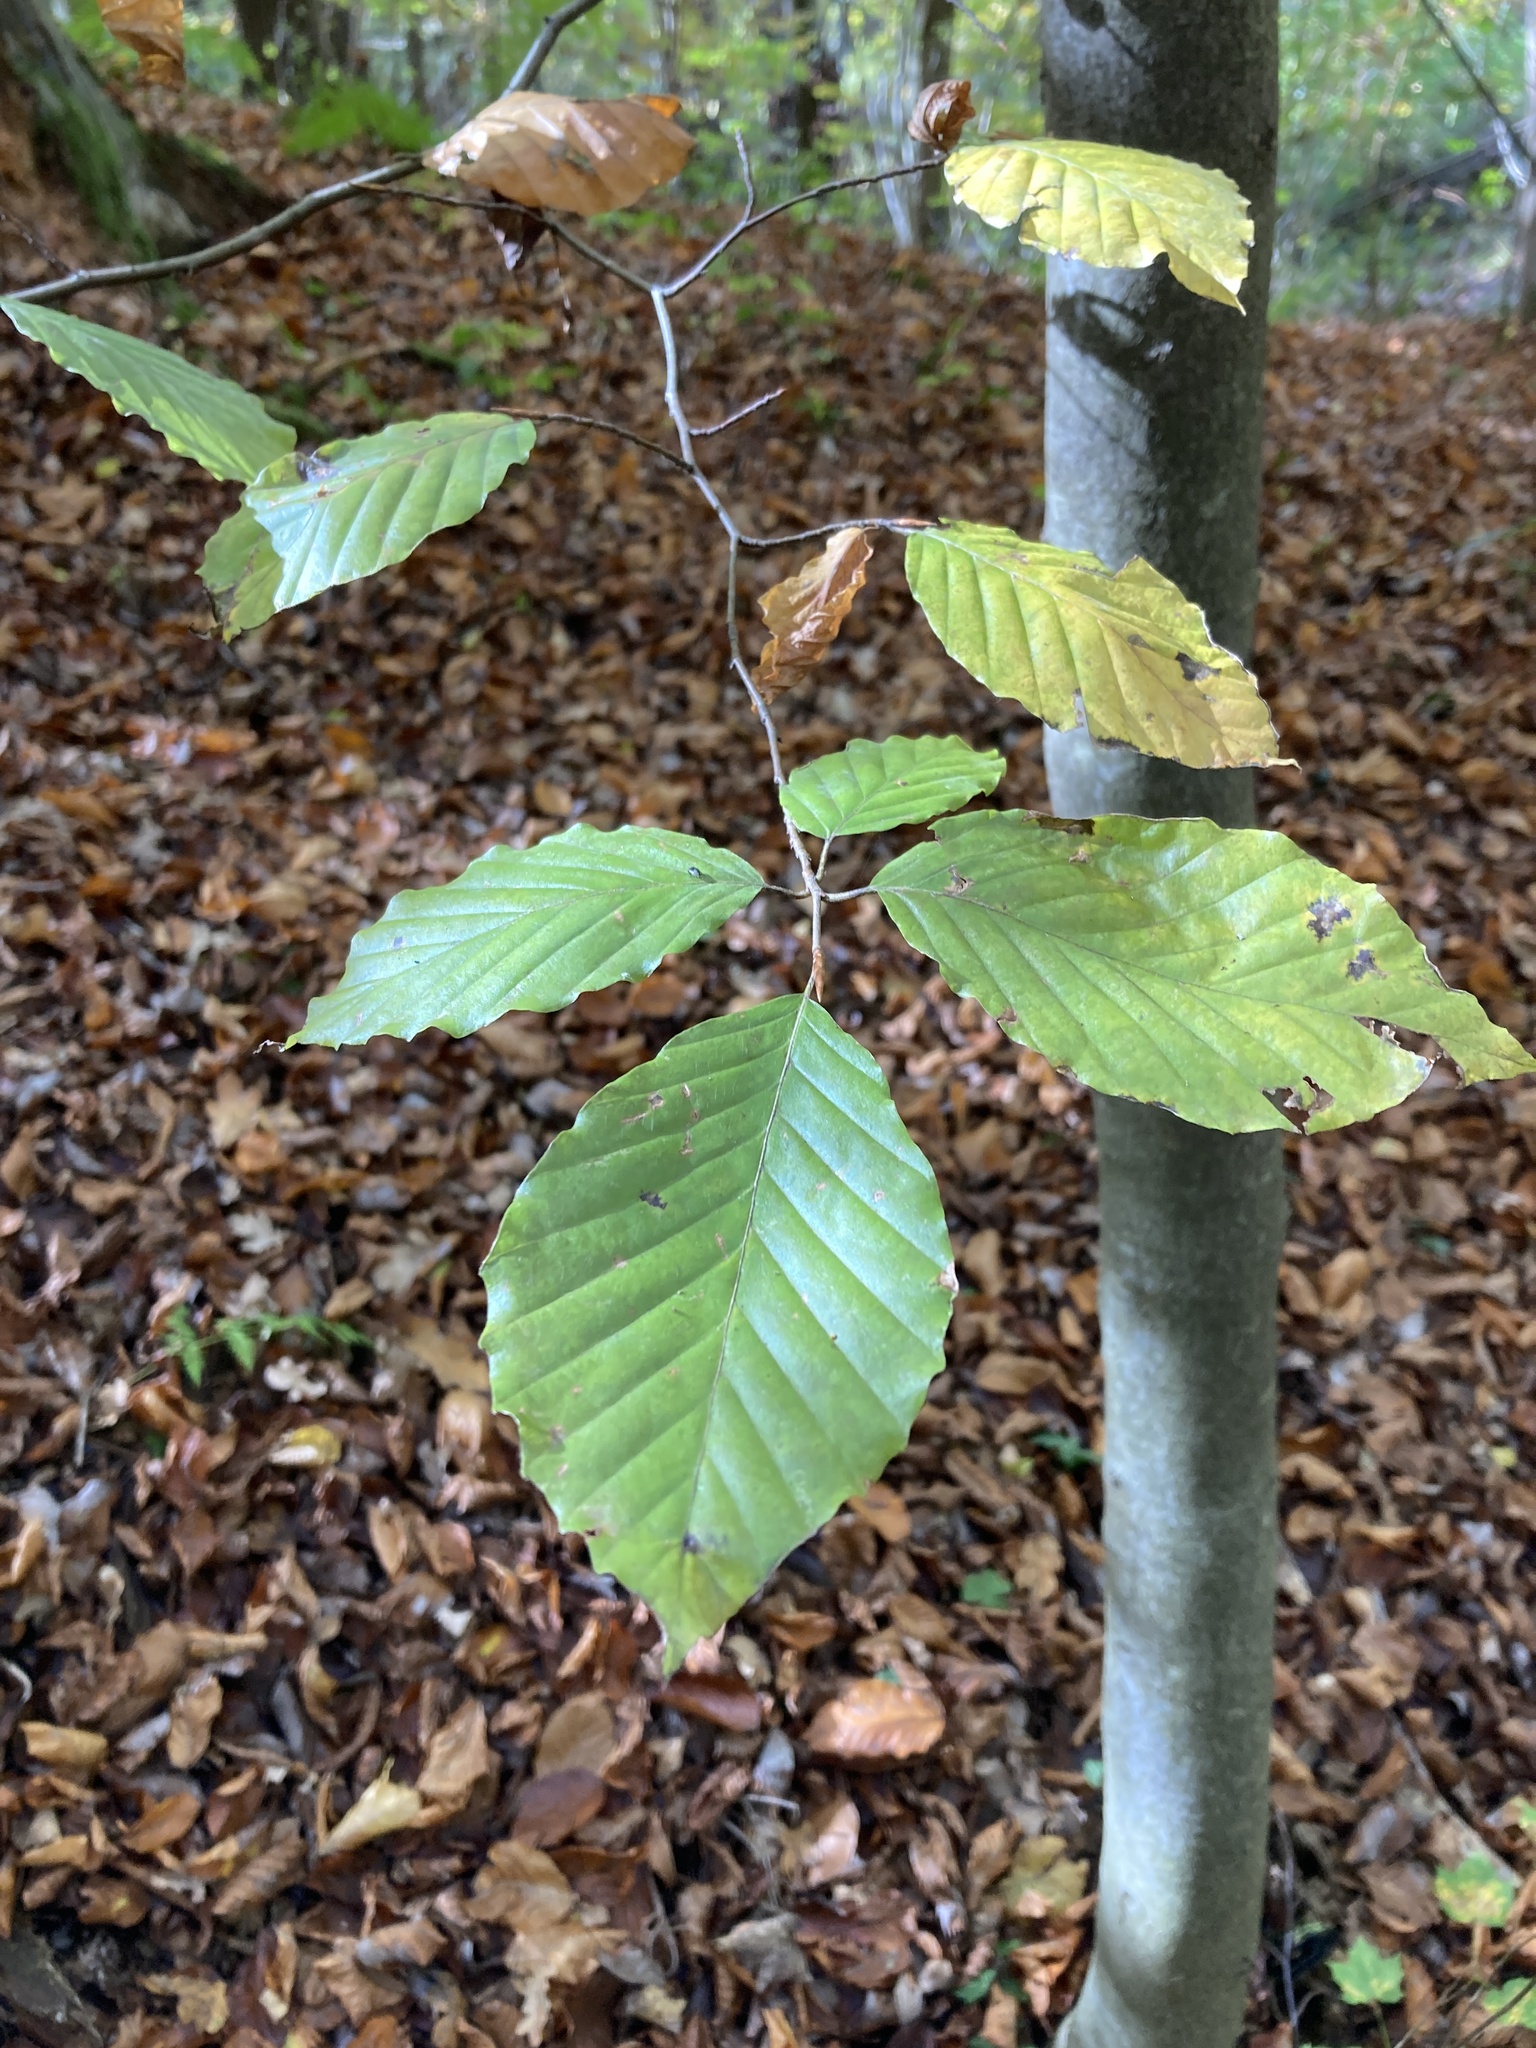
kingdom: Plantae
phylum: Tracheophyta
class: Magnoliopsida
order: Fagales
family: Fagaceae
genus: Fagus
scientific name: Fagus sylvatica
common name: Beech
